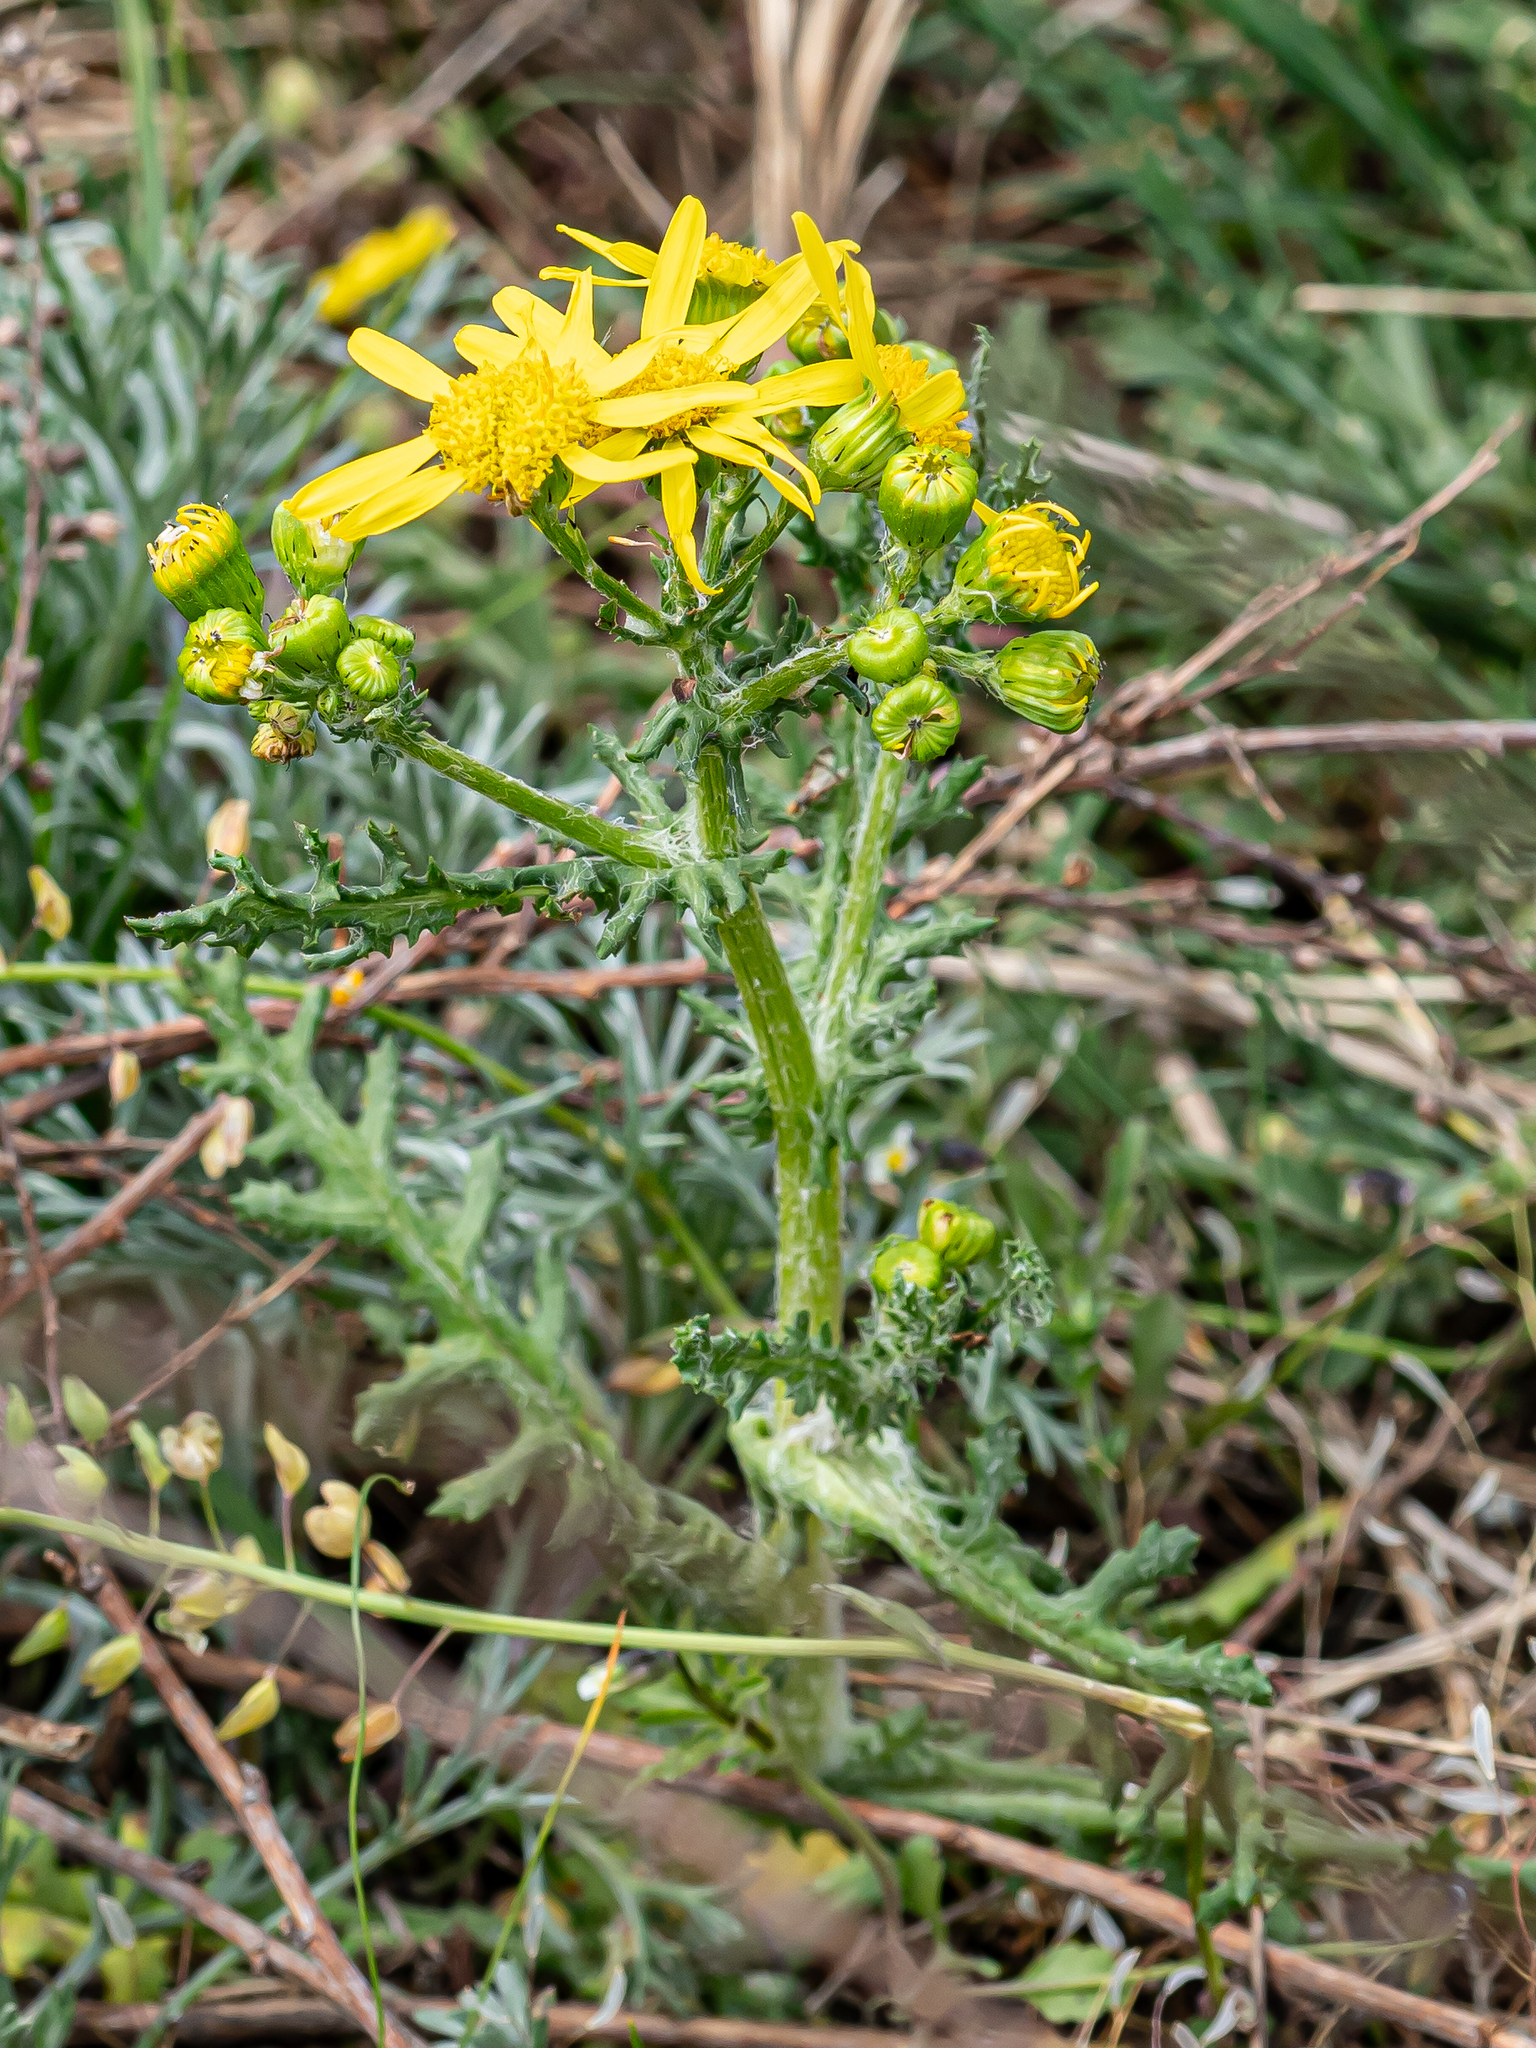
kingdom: Plantae
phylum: Tracheophyta
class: Magnoliopsida
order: Asterales
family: Asteraceae
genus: Senecio
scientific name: Senecio vernalis
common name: Eastern groundsel
